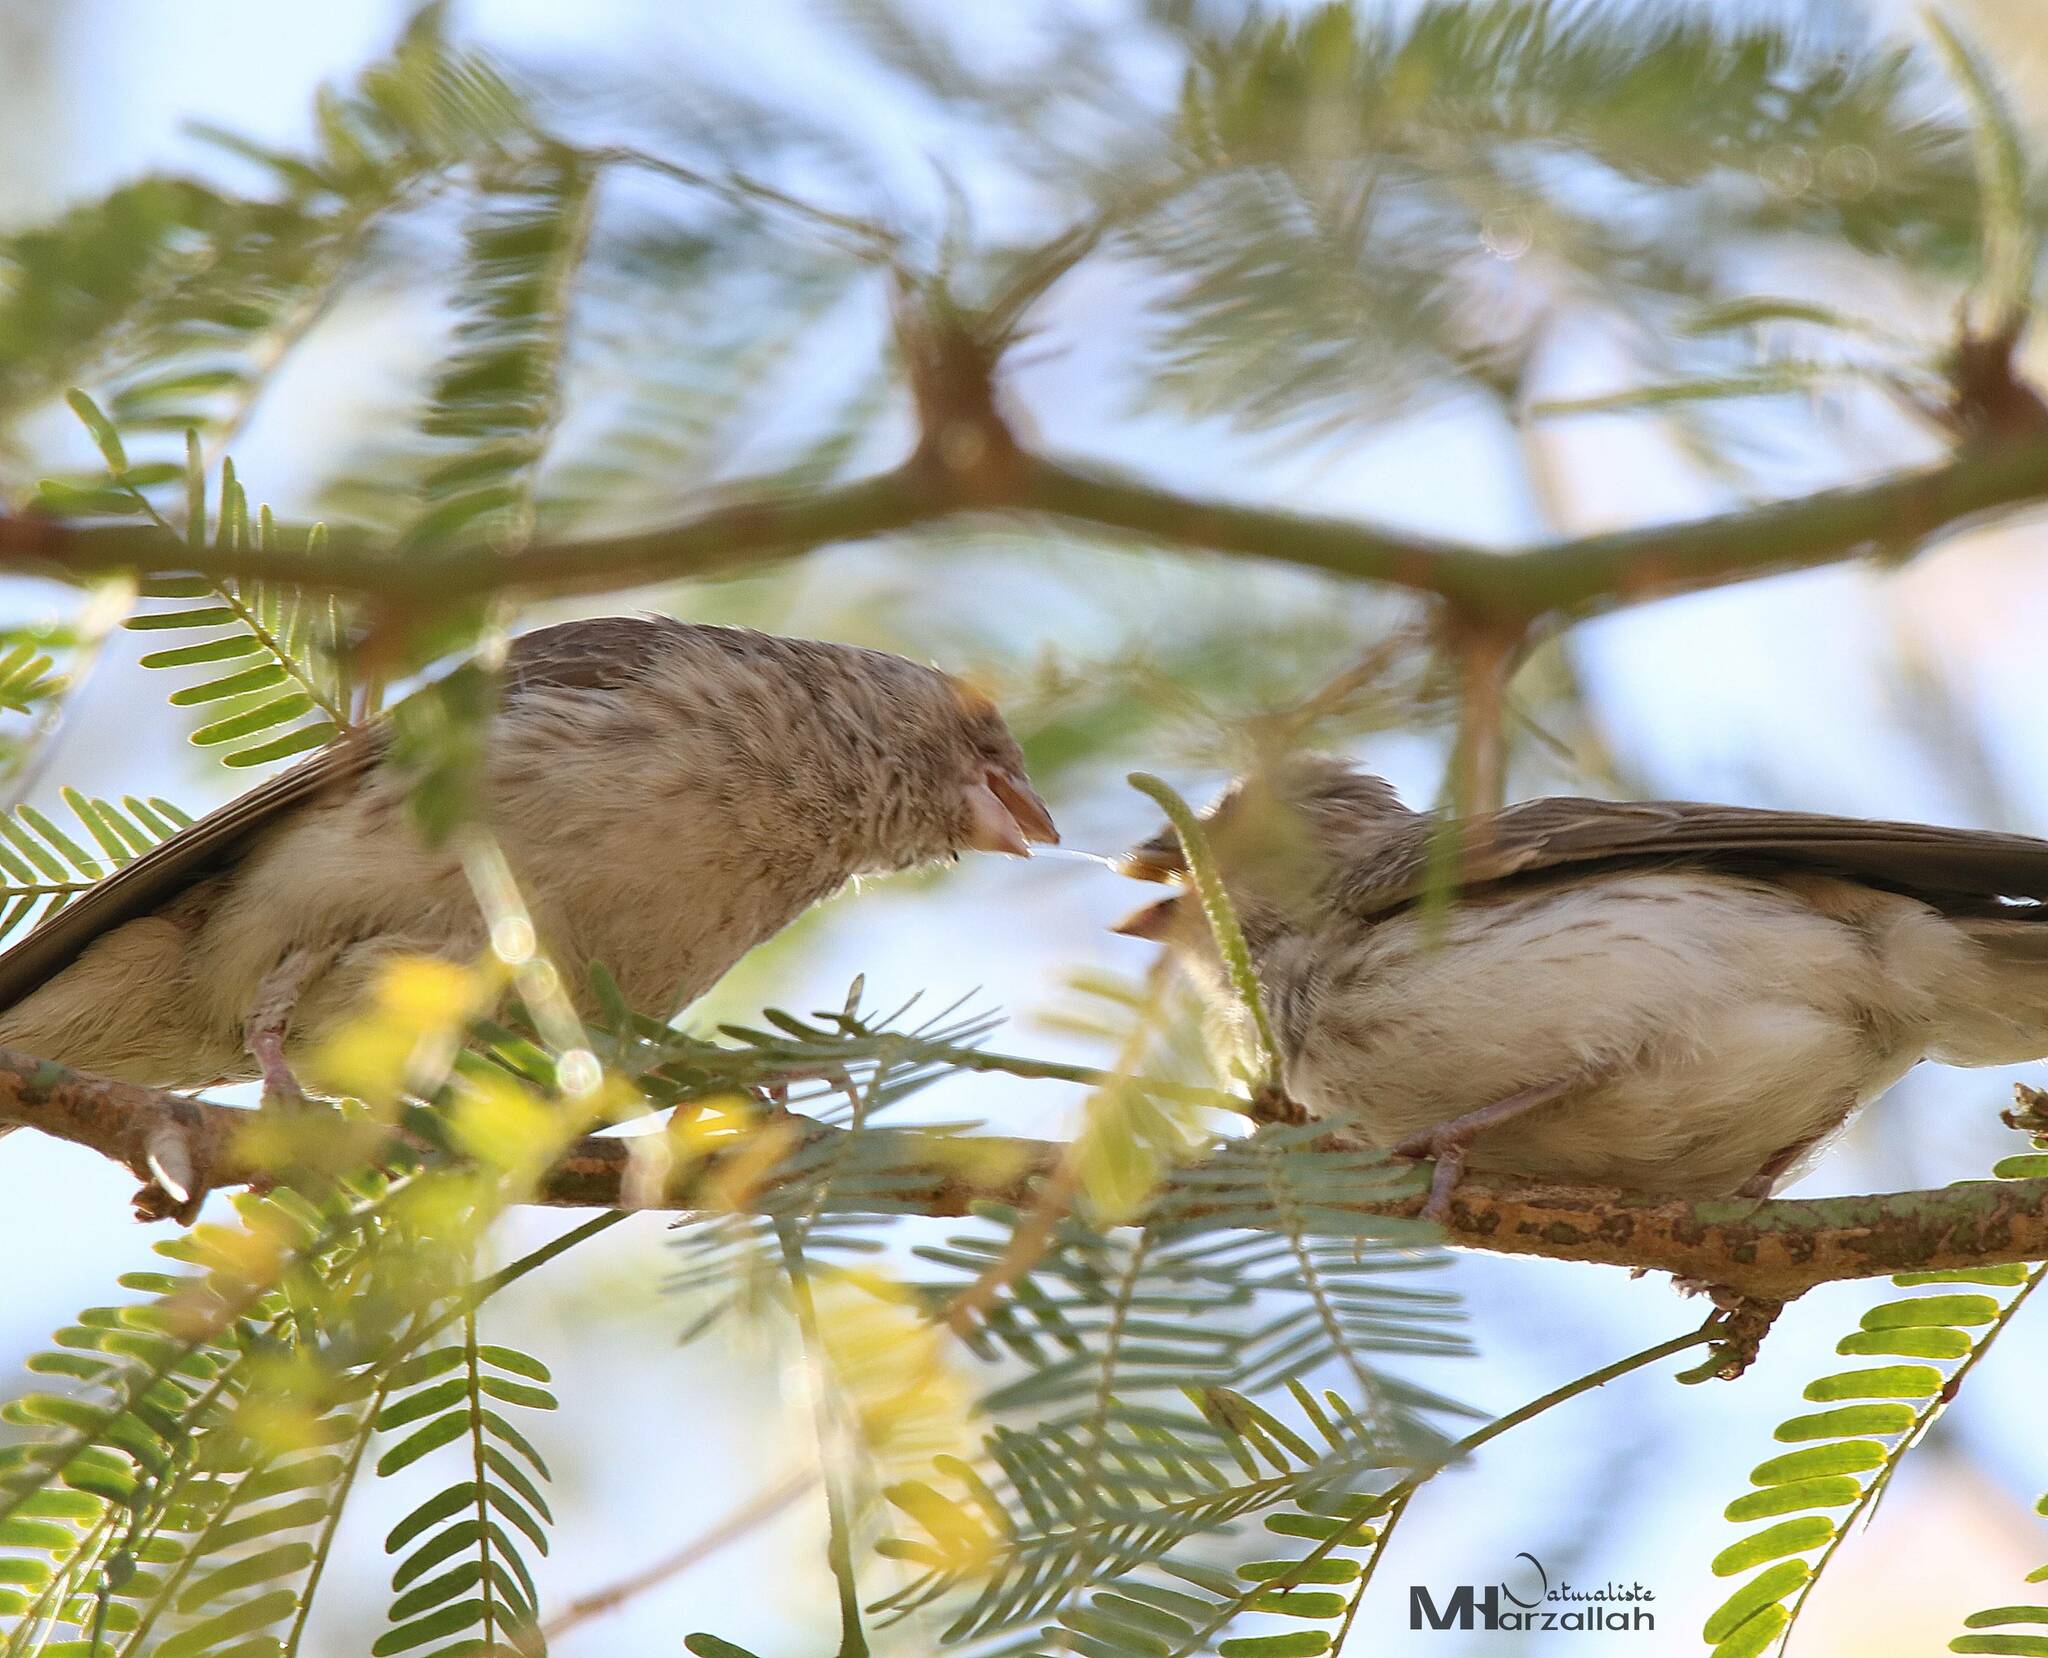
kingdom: Animalia
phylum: Chordata
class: Aves
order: Passeriformes
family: Fringillidae
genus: Crithagra
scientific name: Crithagra leucopygia
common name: White-rumped seedeater
